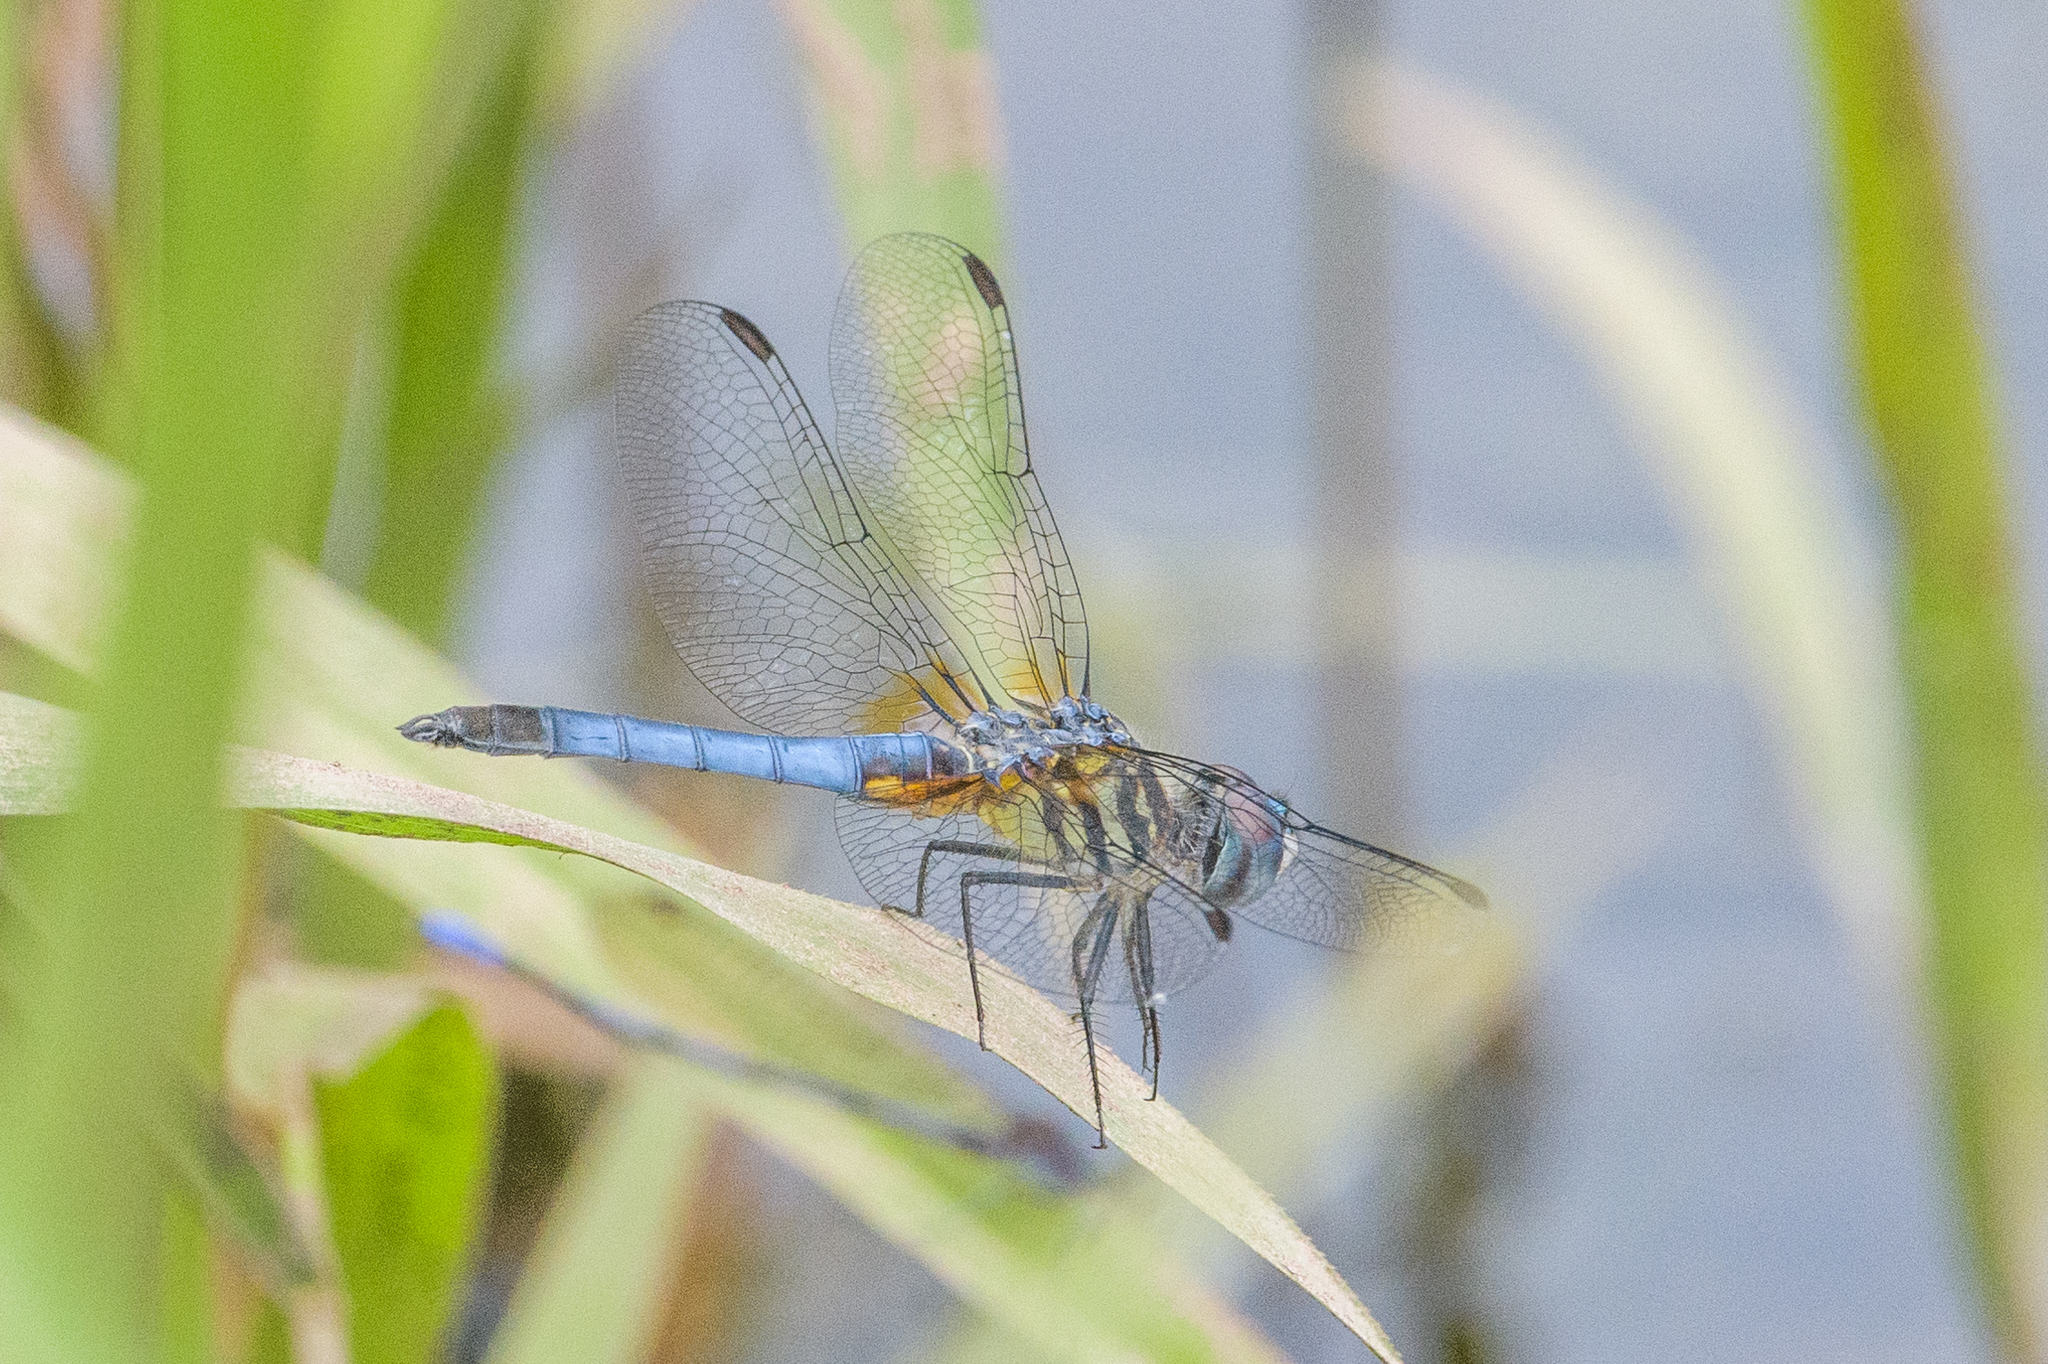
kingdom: Animalia
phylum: Arthropoda
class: Insecta
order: Odonata
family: Libellulidae
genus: Pachydiplax
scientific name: Pachydiplax longipennis
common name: Blue dasher
